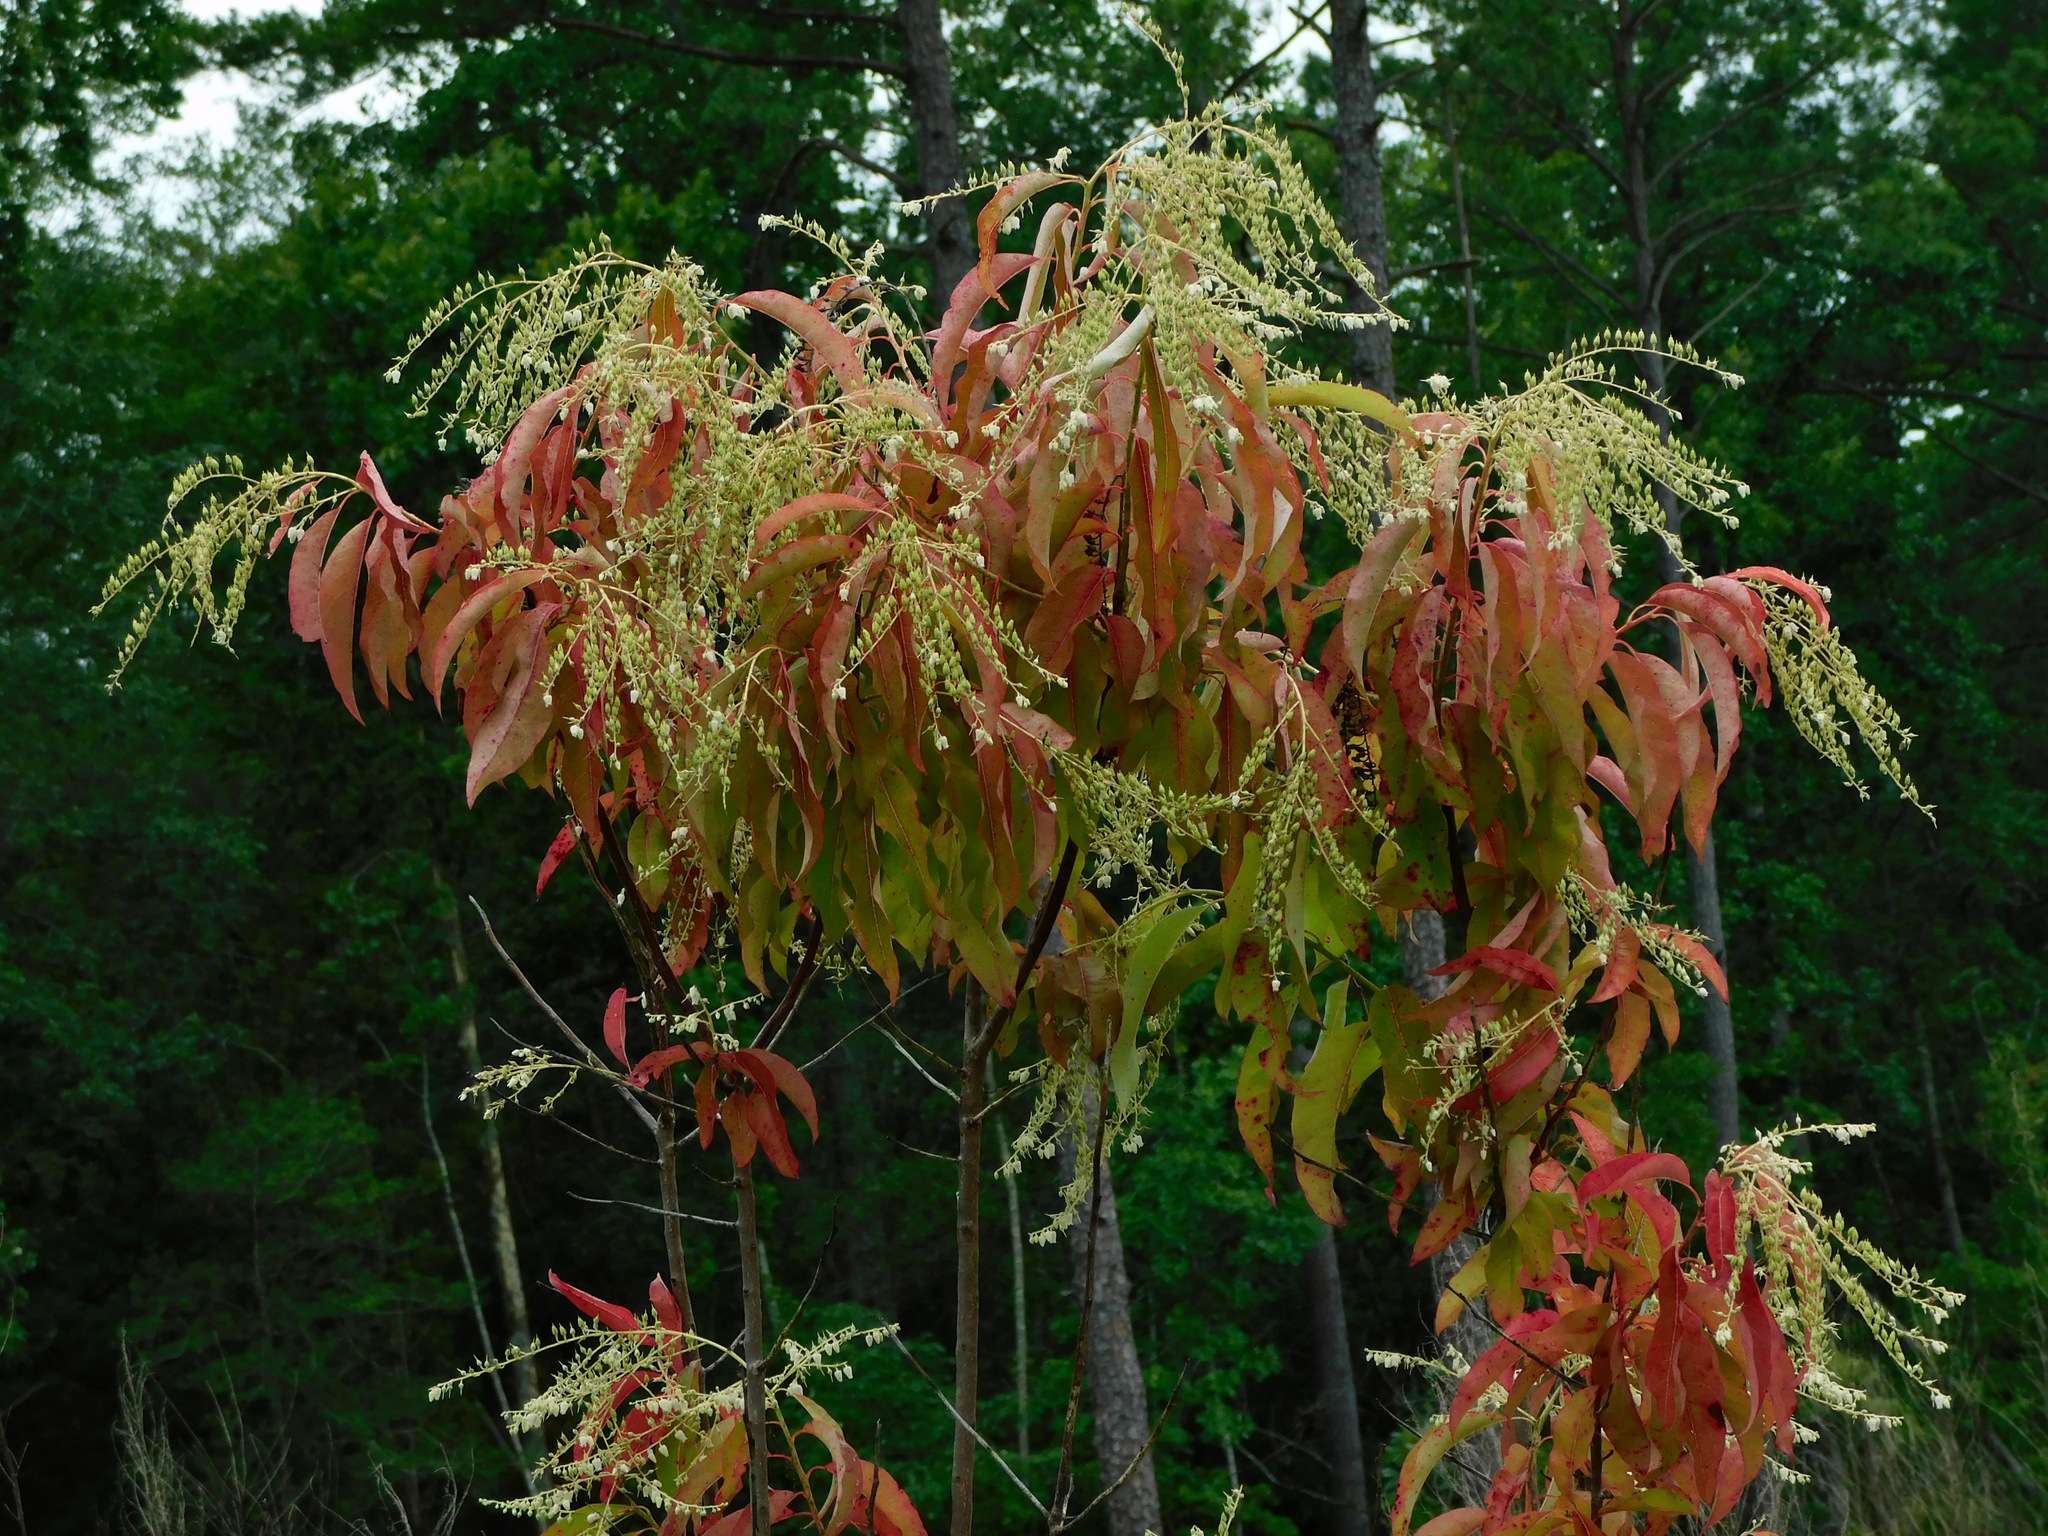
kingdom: Plantae
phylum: Tracheophyta
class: Magnoliopsida
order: Ericales
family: Ericaceae
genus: Oxydendrum
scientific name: Oxydendrum arboreum
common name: Sourwood
